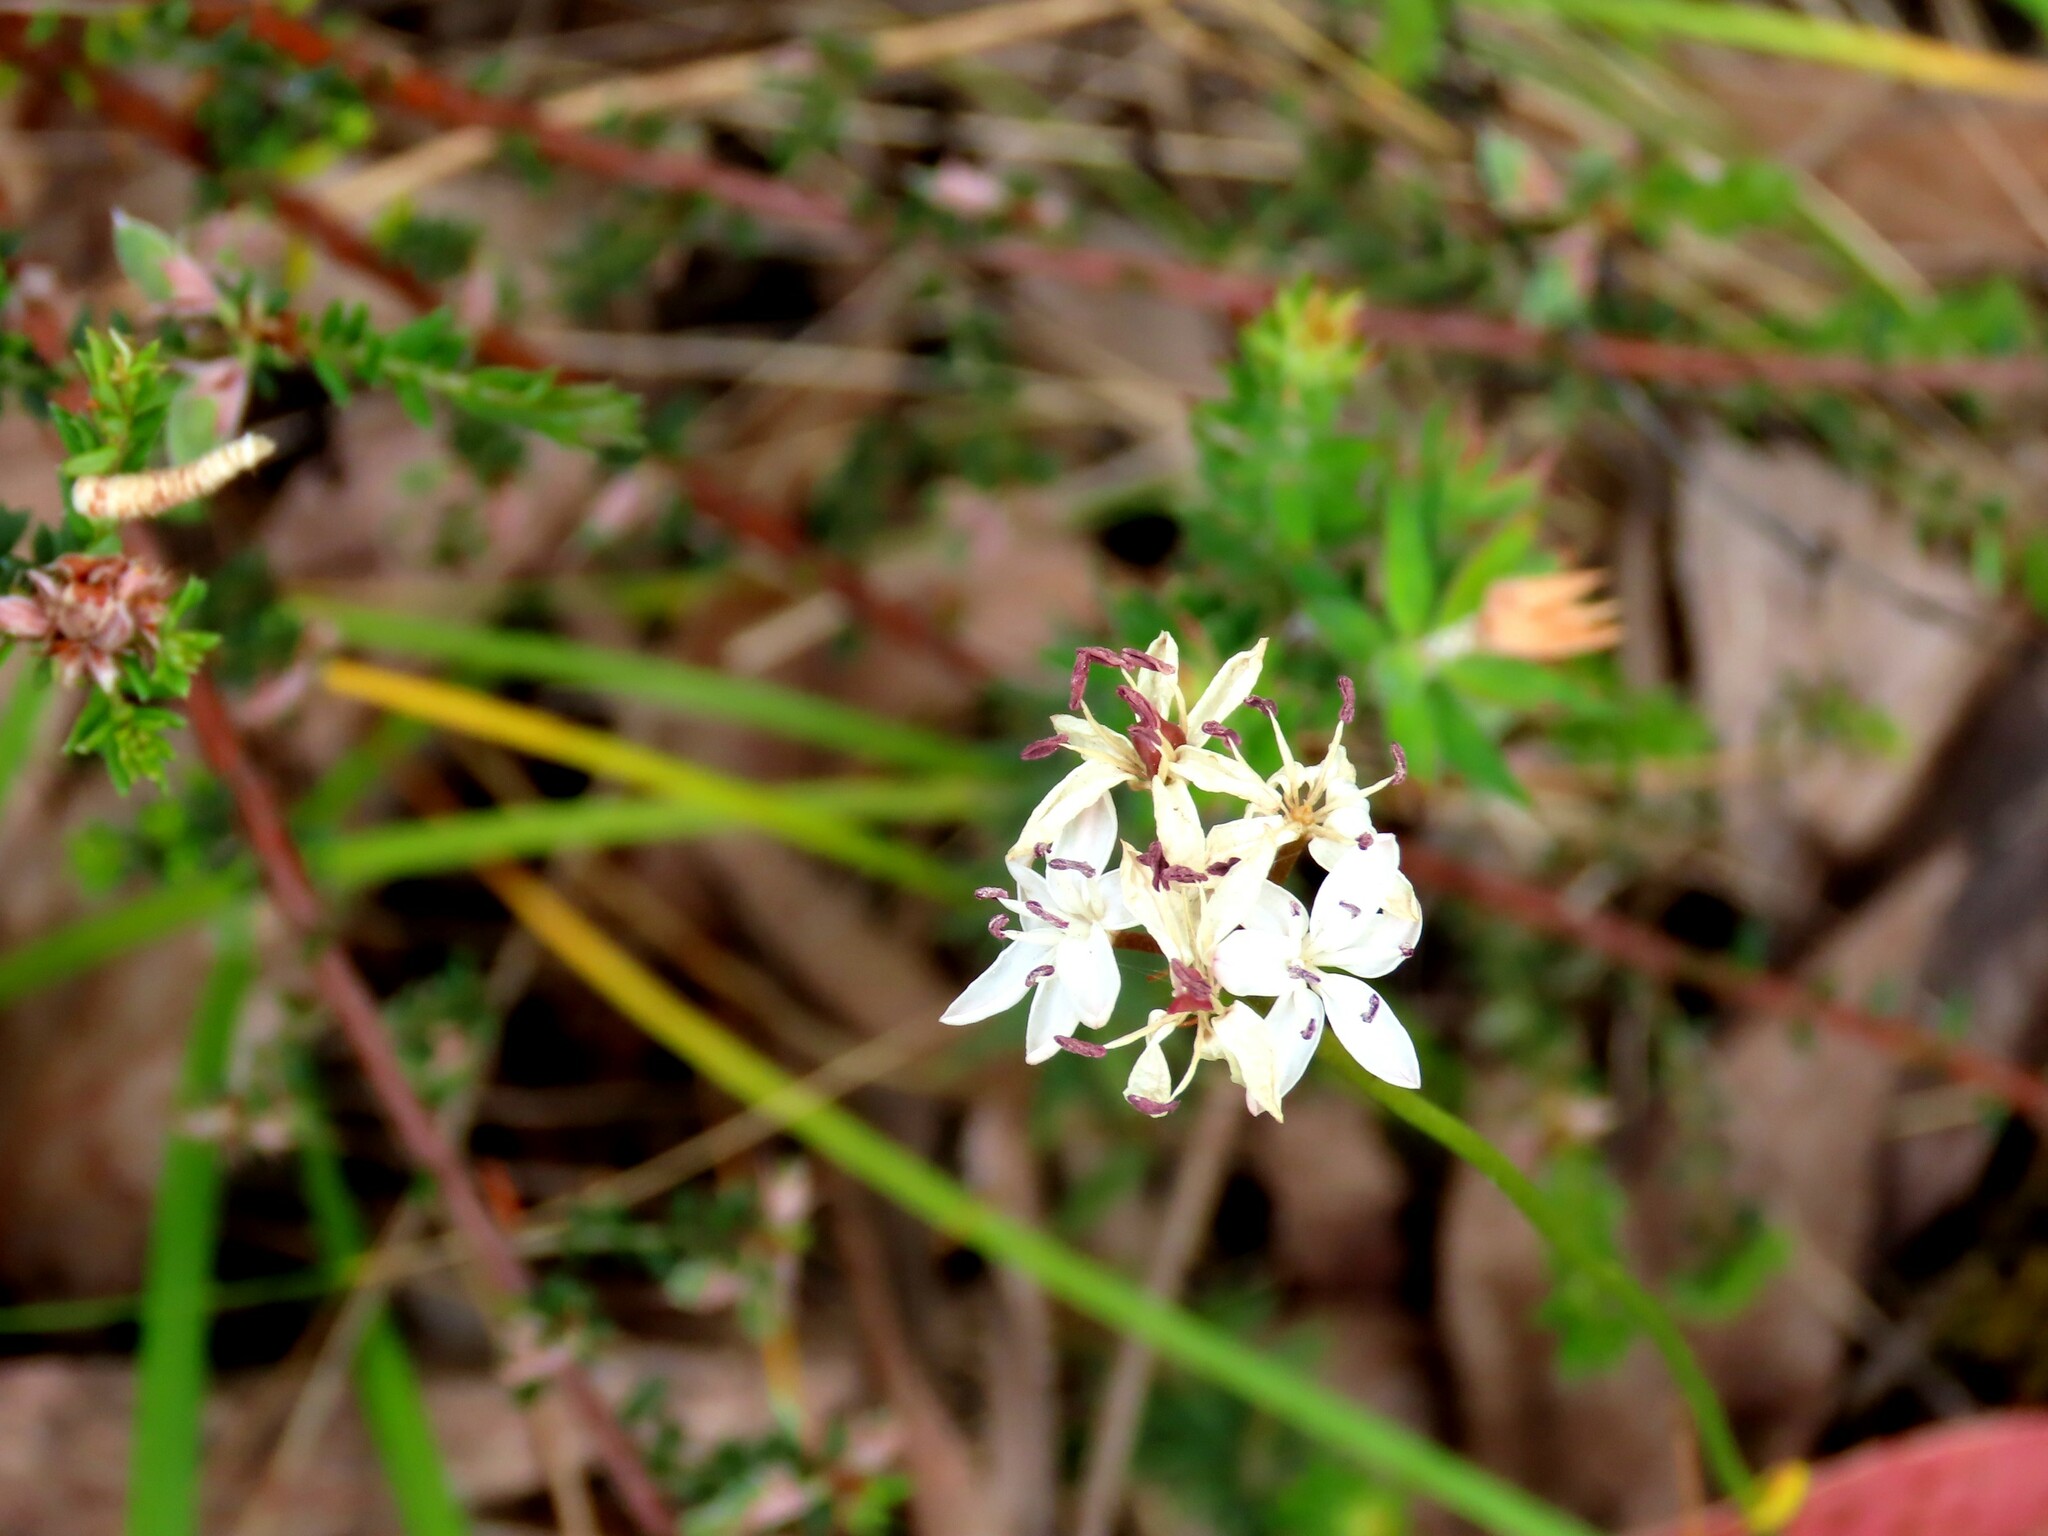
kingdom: Plantae
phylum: Tracheophyta
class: Liliopsida
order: Liliales
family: Colchicaceae
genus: Burchardia
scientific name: Burchardia umbellata
